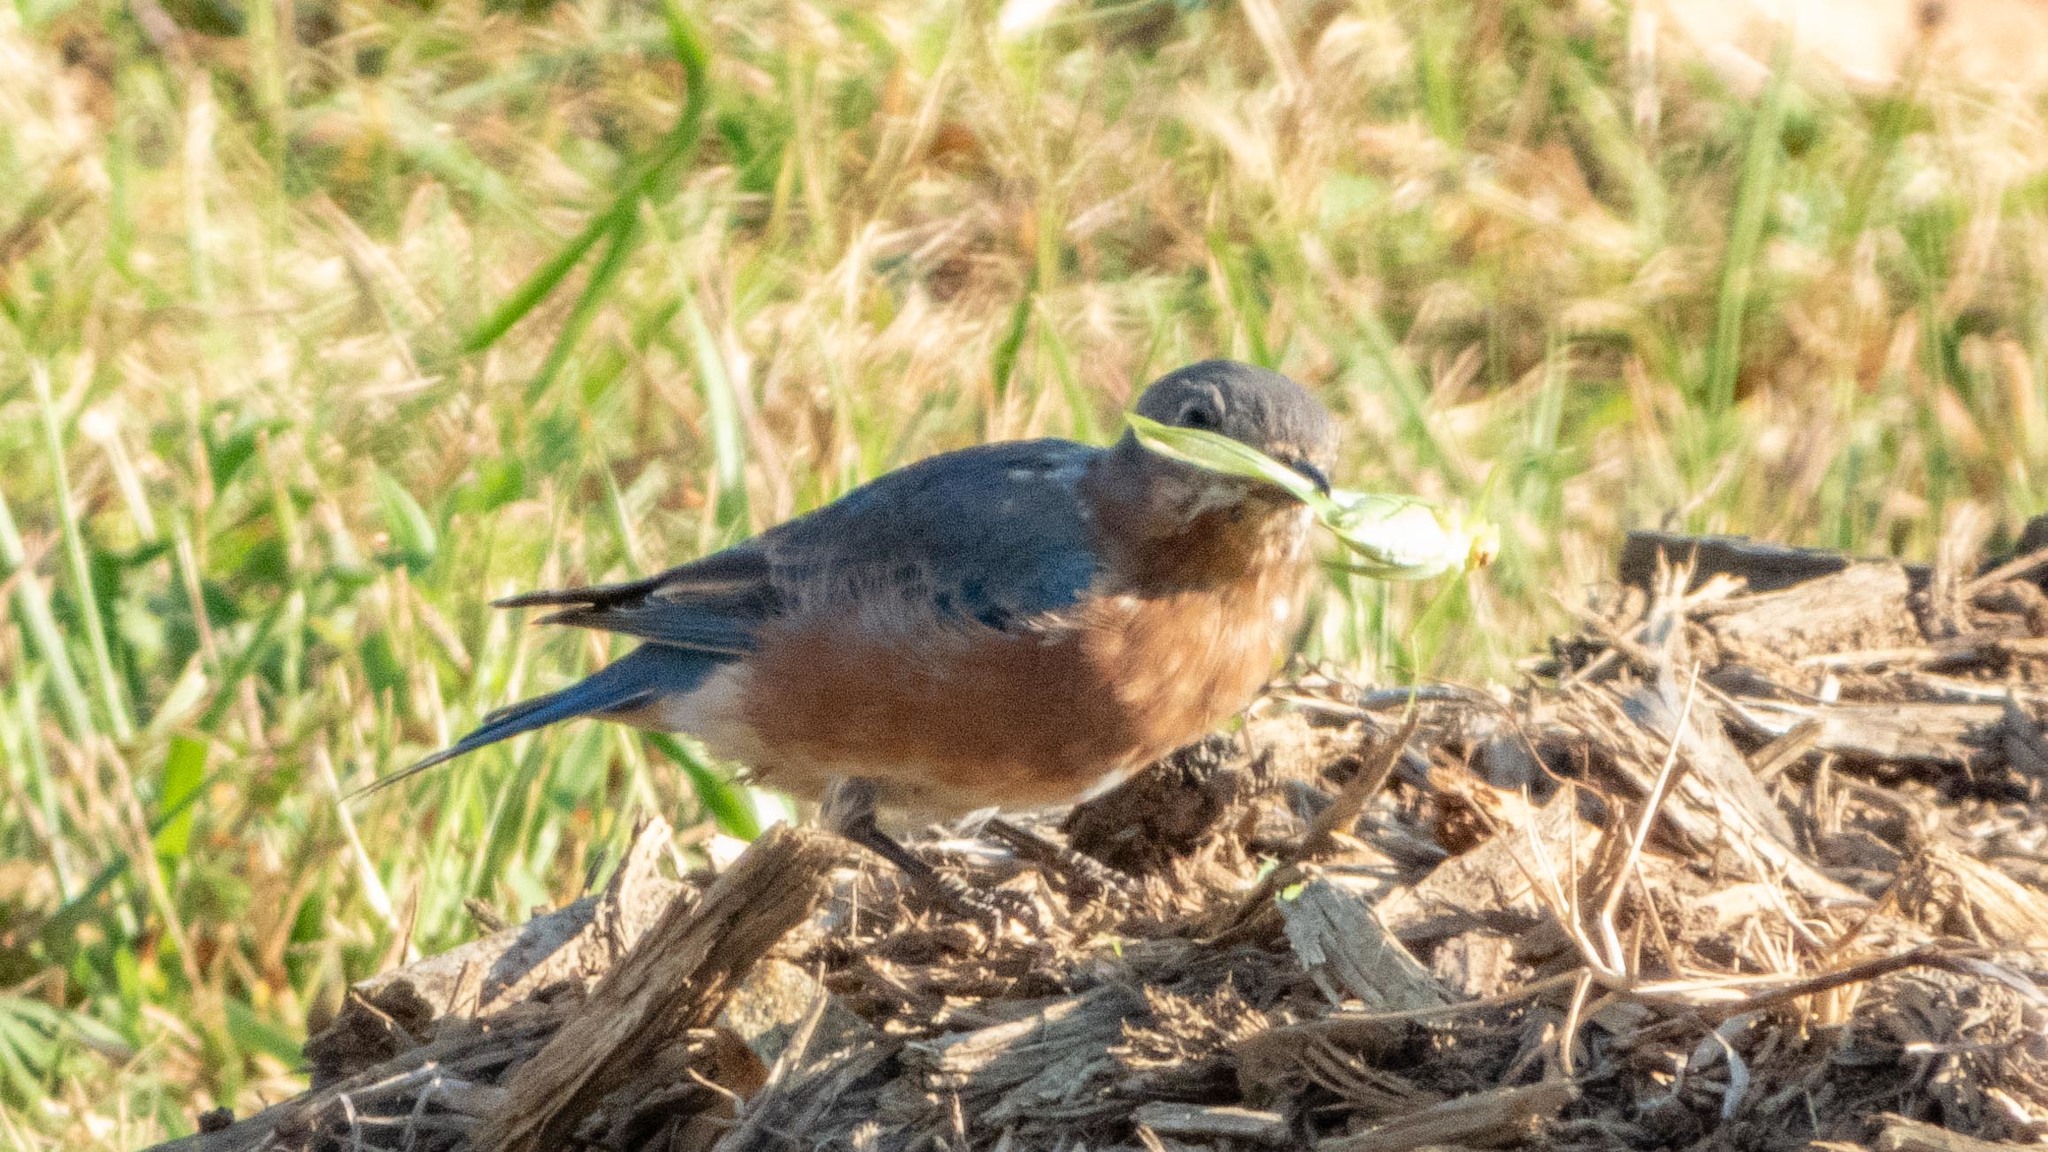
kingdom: Animalia
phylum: Chordata
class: Aves
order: Passeriformes
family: Turdidae
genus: Sialia
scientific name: Sialia sialis
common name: Eastern bluebird
